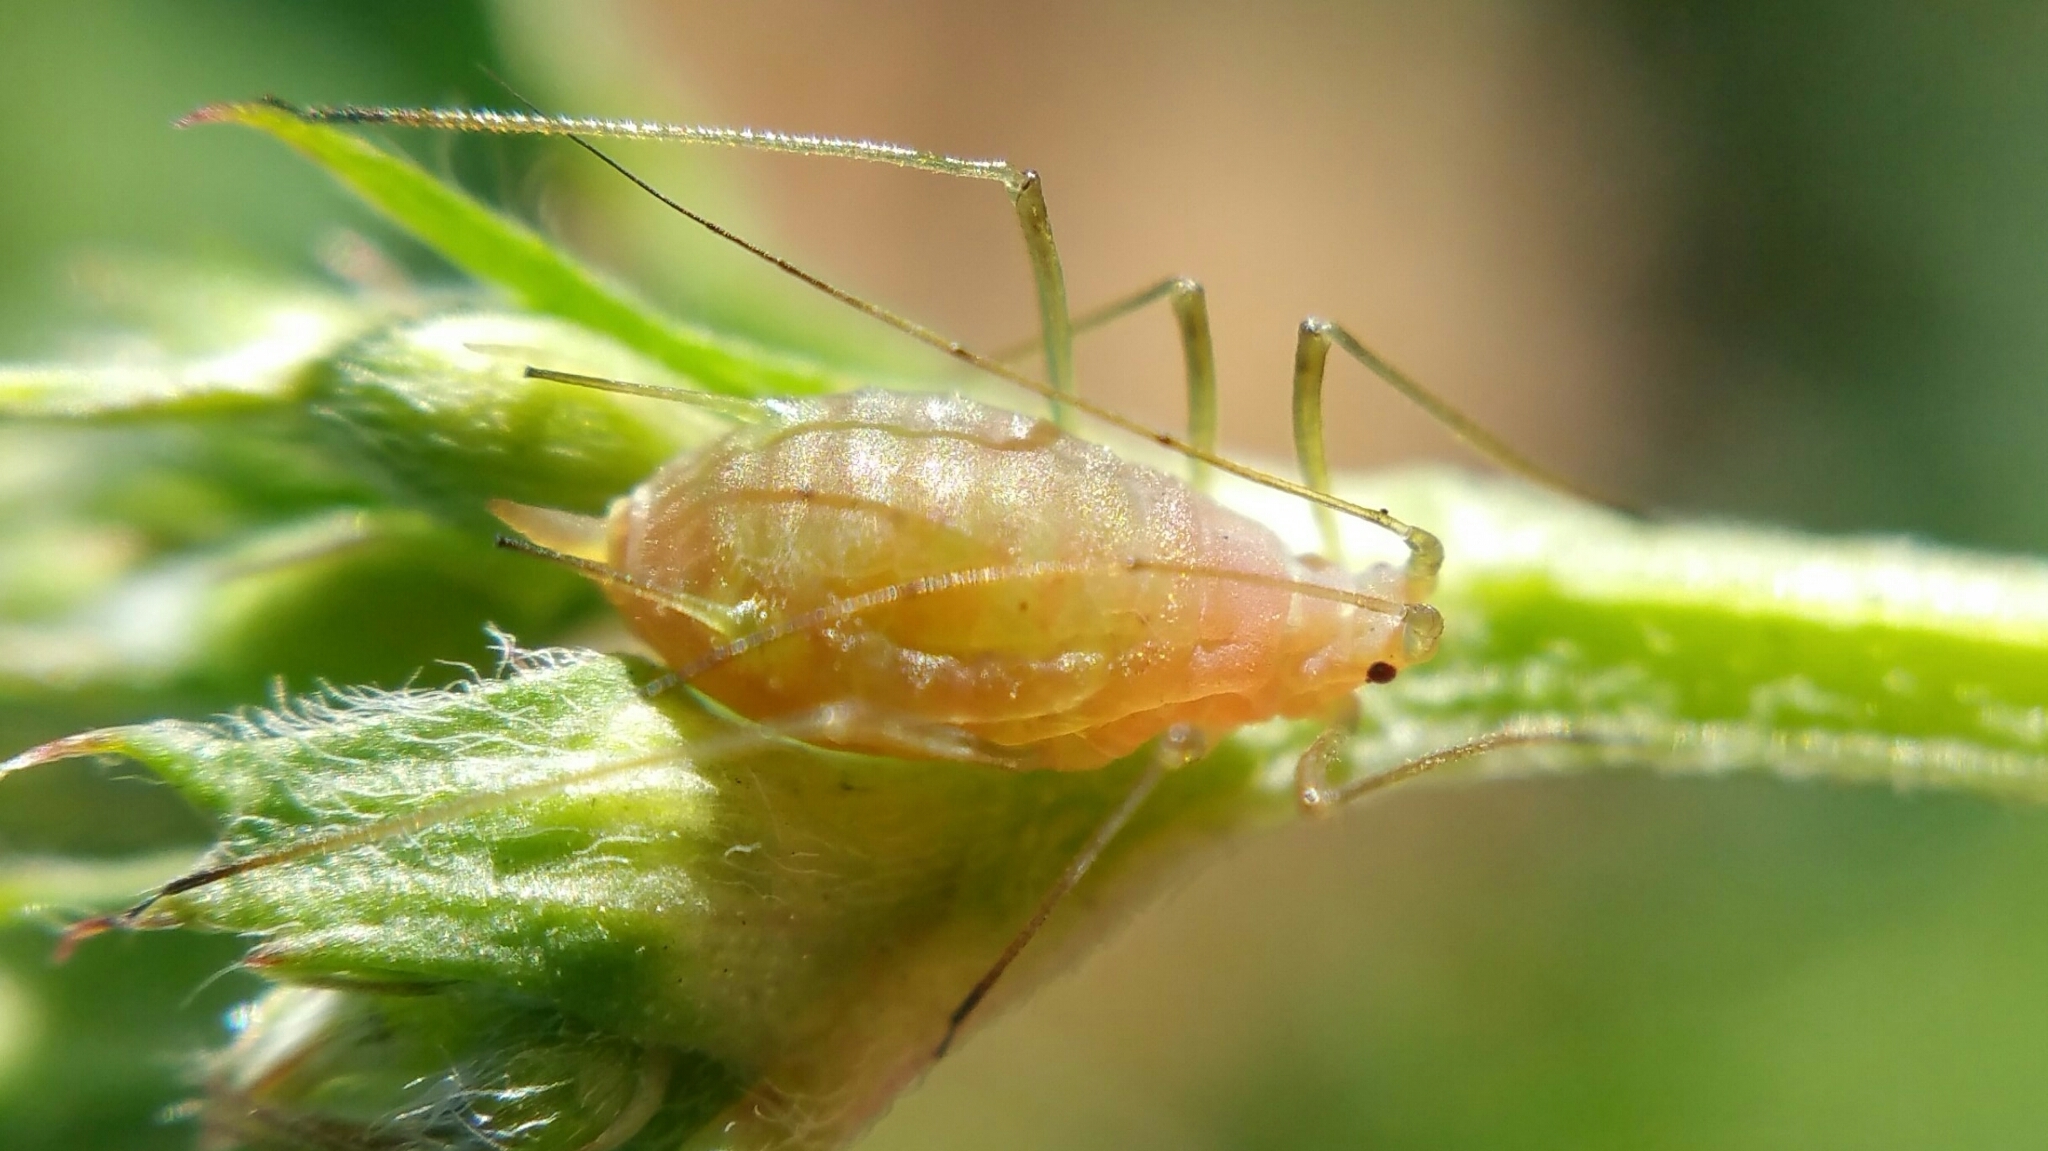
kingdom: Animalia
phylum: Arthropoda
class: Insecta
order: Hemiptera
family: Aphididae
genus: Acyrthosiphon
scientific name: Acyrthosiphon pisum
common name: Pea aphid
